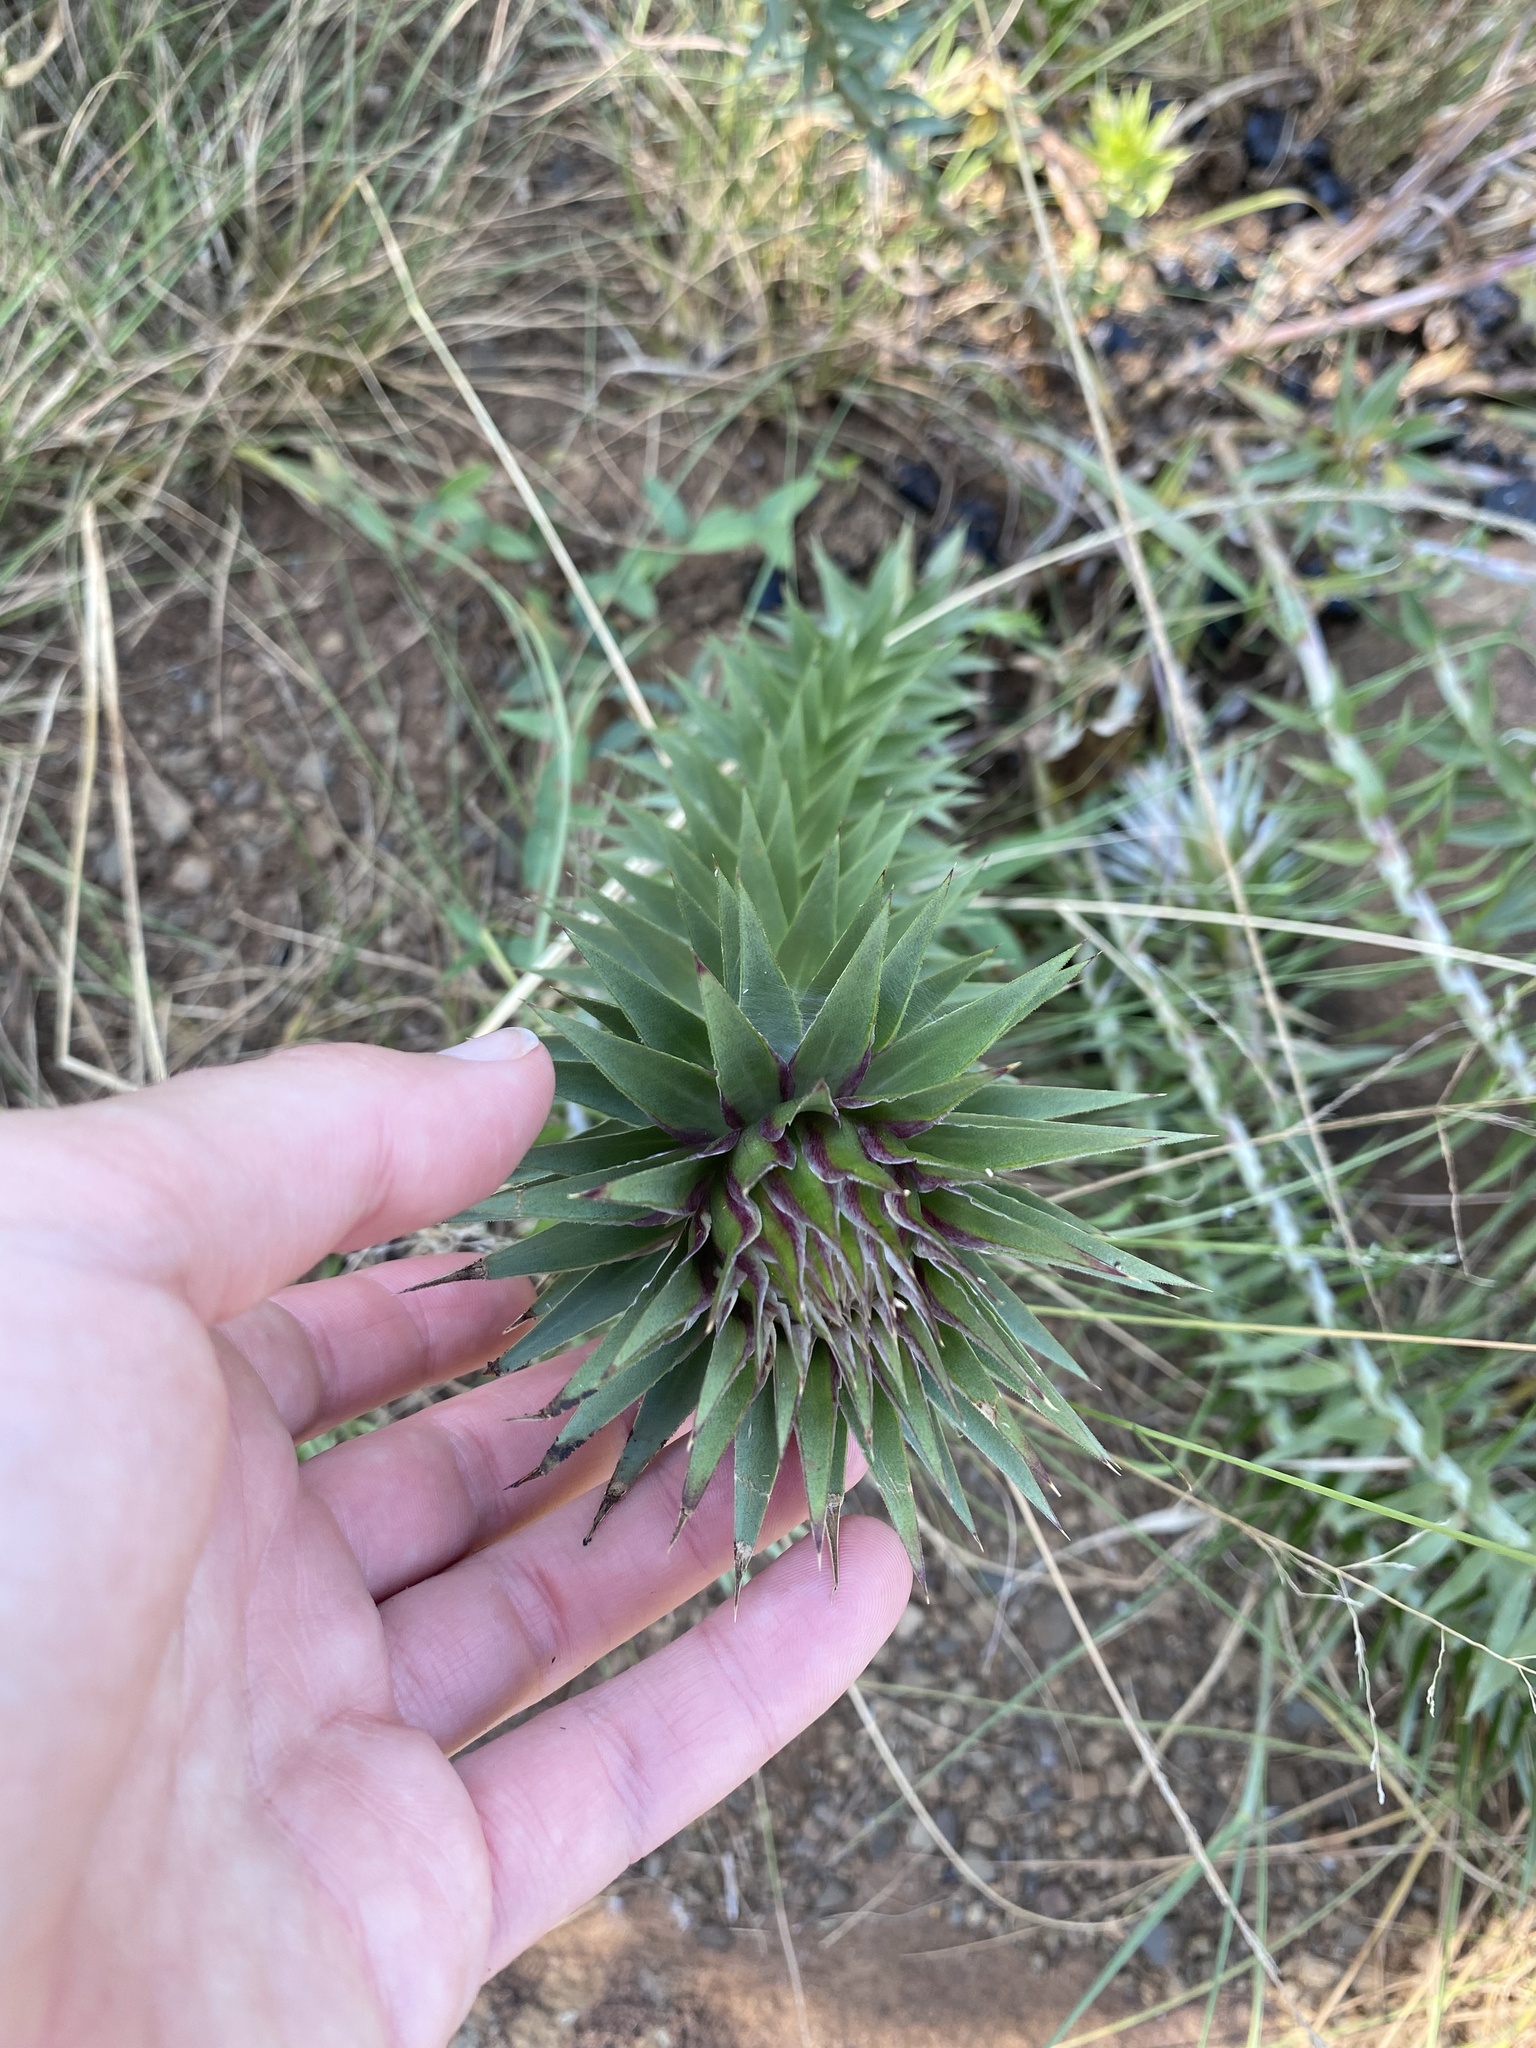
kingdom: Plantae
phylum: Tracheophyta
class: Magnoliopsida
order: Asterales
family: Asteraceae
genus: Macledium
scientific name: Macledium zeyheri
